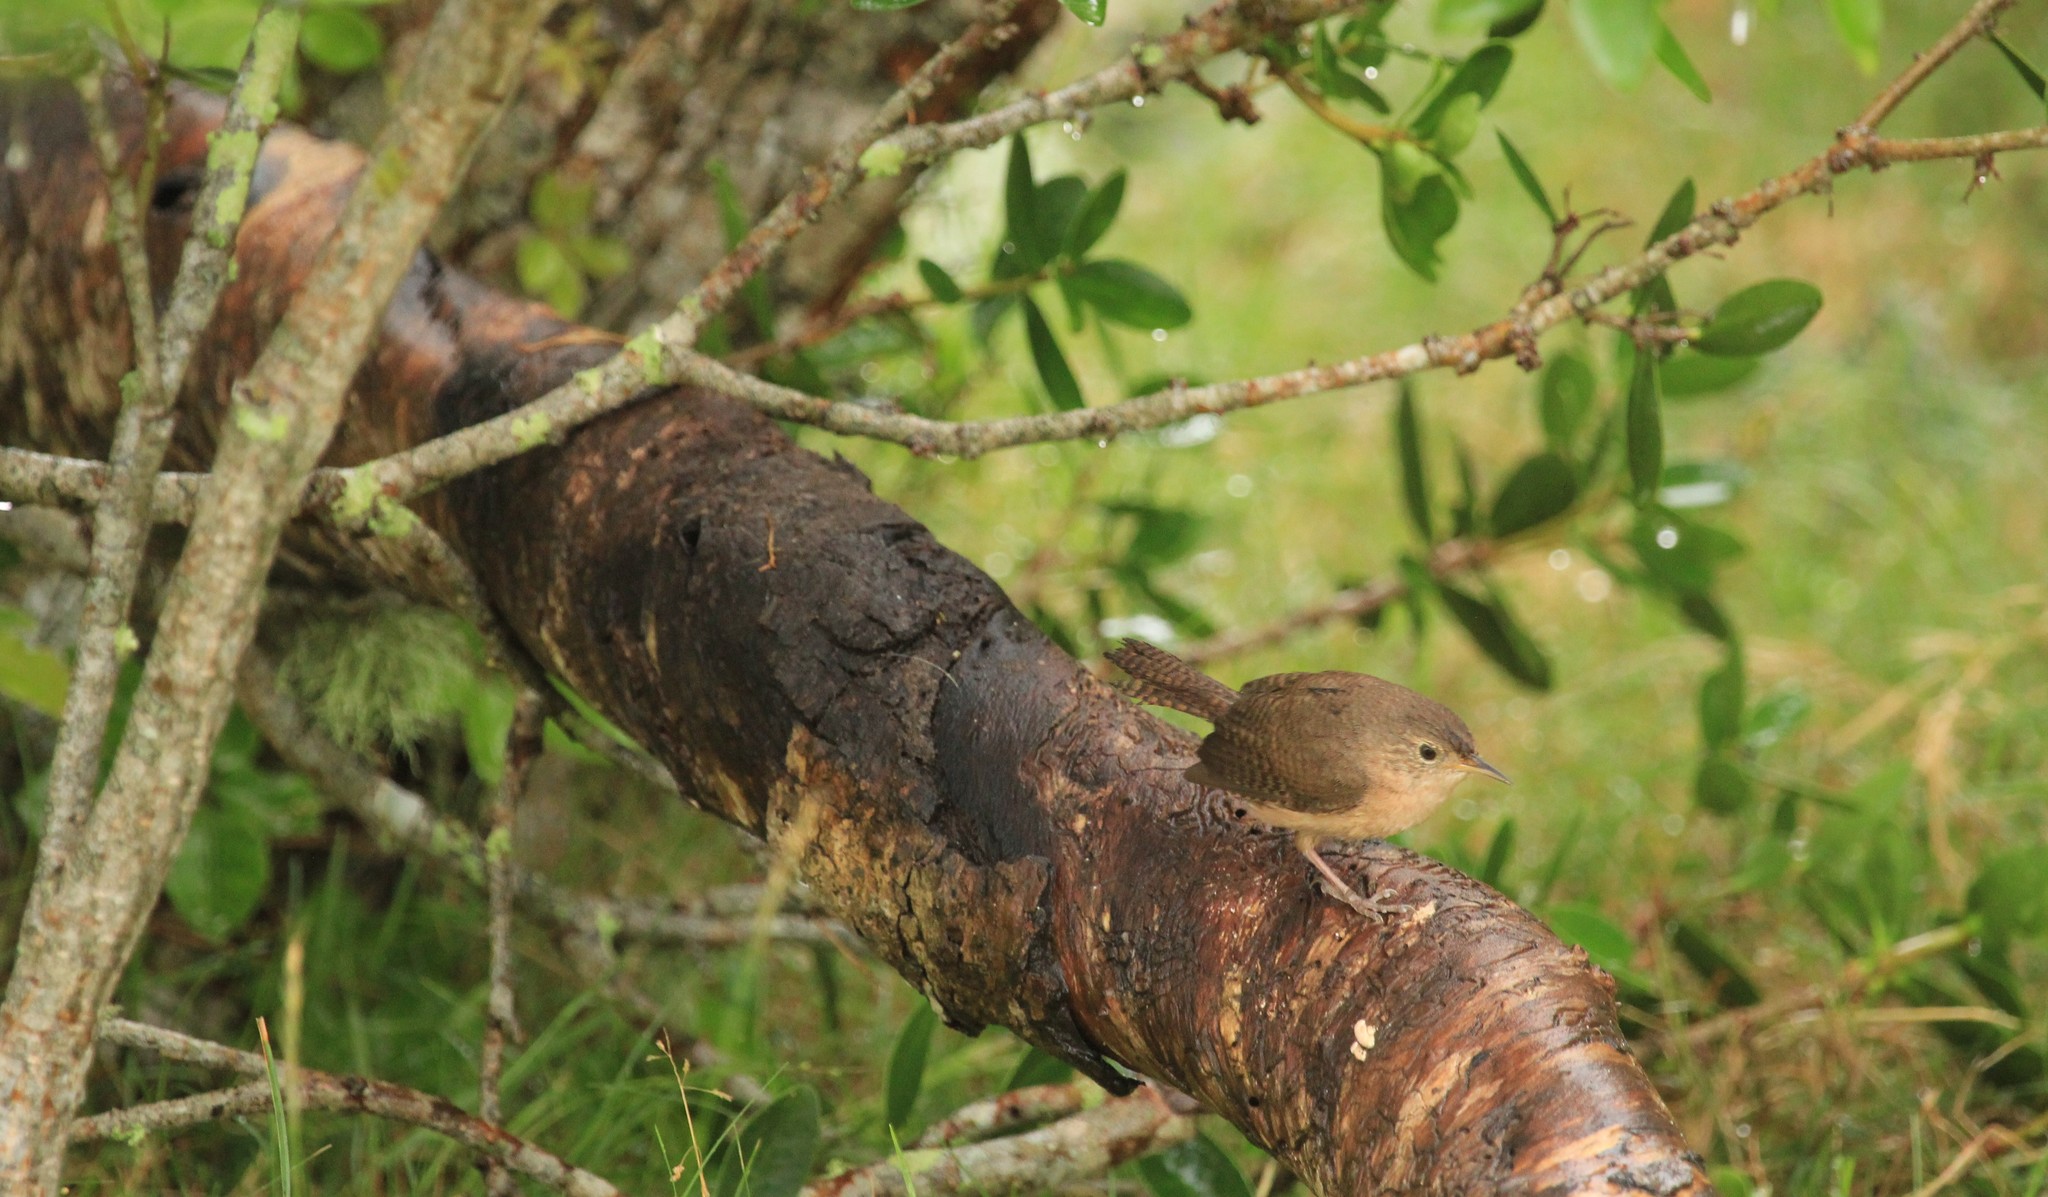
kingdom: Animalia
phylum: Chordata
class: Aves
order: Passeriformes
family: Troglodytidae
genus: Troglodytes
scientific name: Troglodytes aedon
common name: House wren
